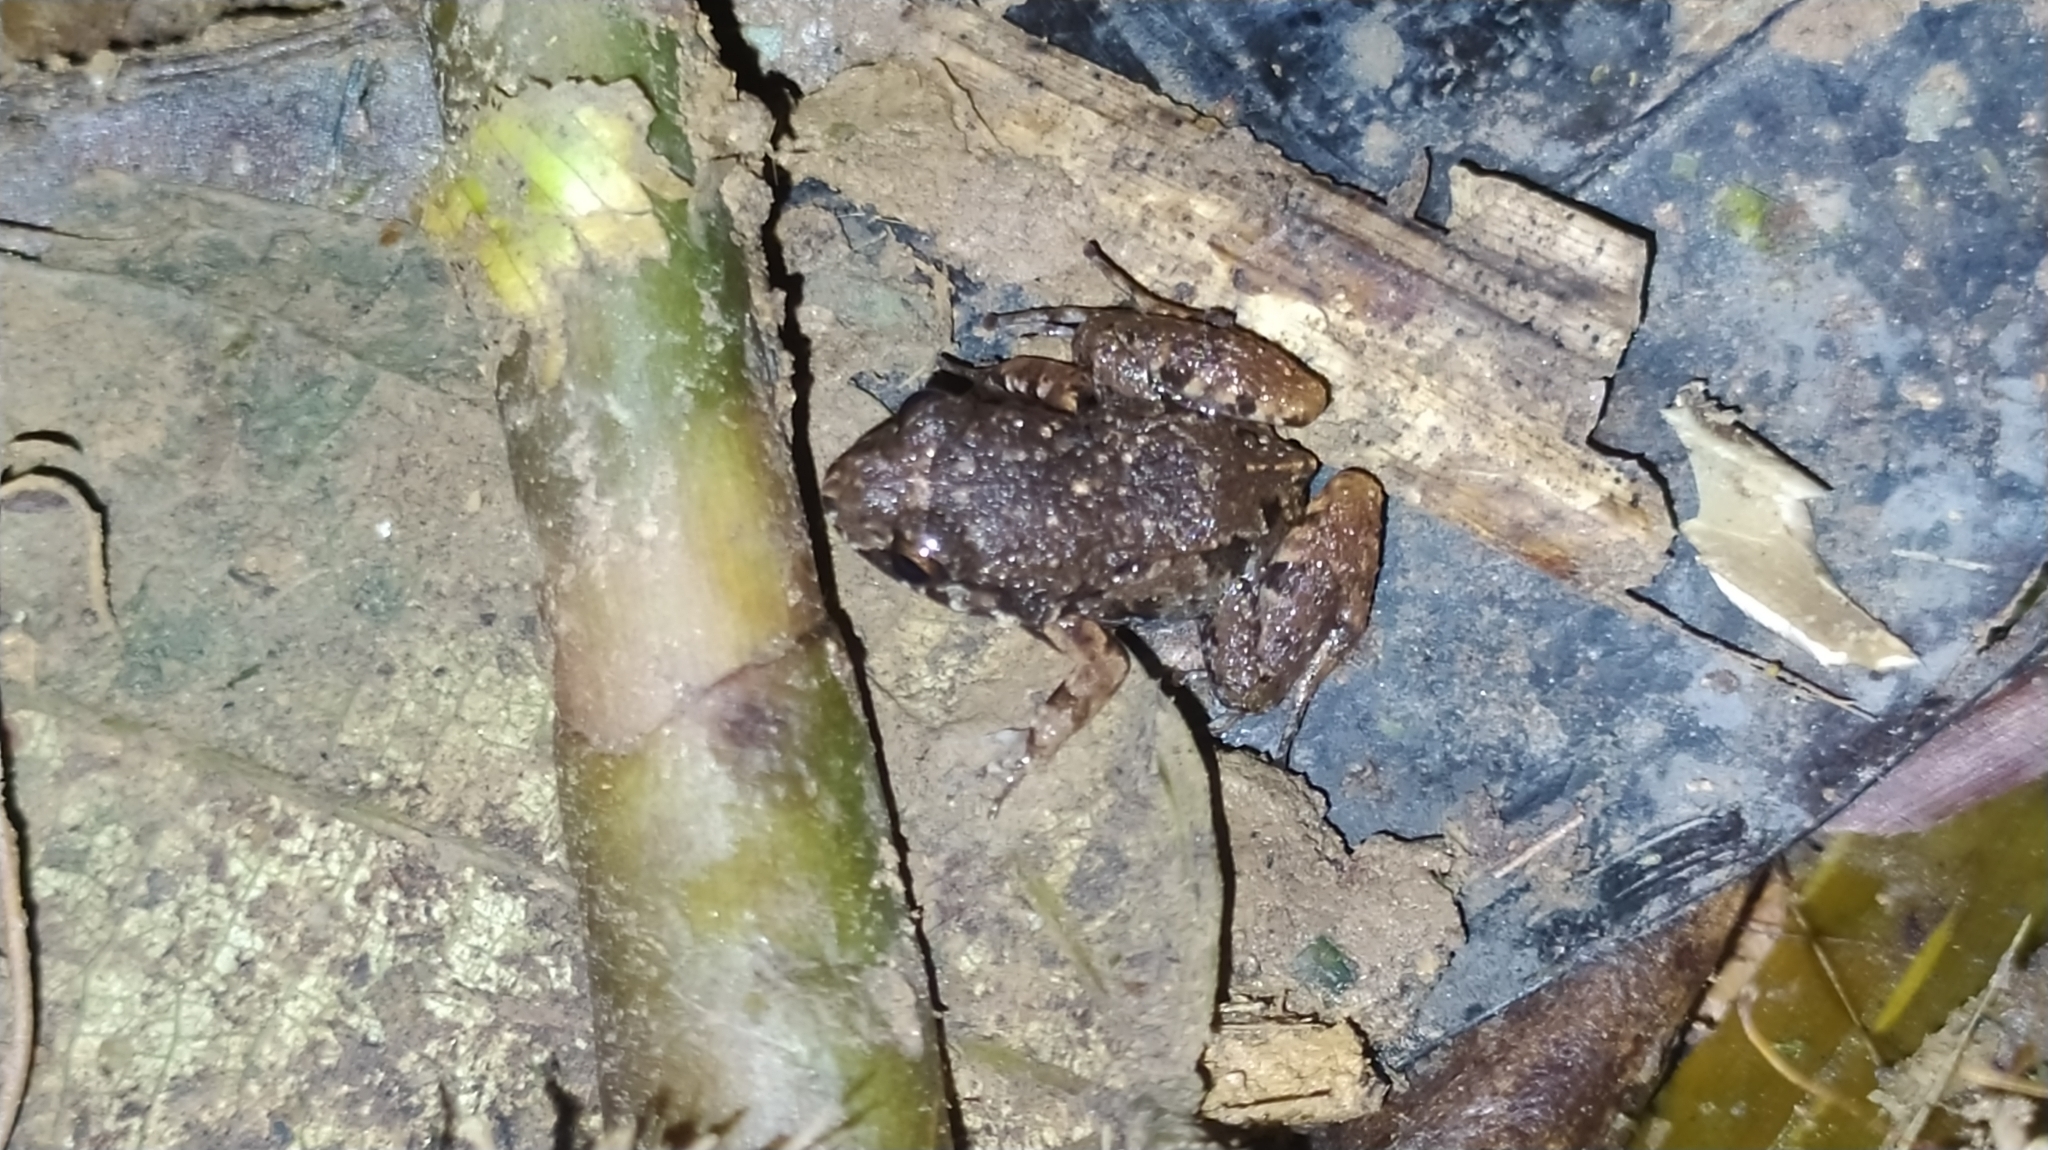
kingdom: Animalia
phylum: Chordata
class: Amphibia
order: Anura
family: Leptodactylidae
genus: Adenomera
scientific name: Adenomera andreae
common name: Lowland tropical bullfrog
